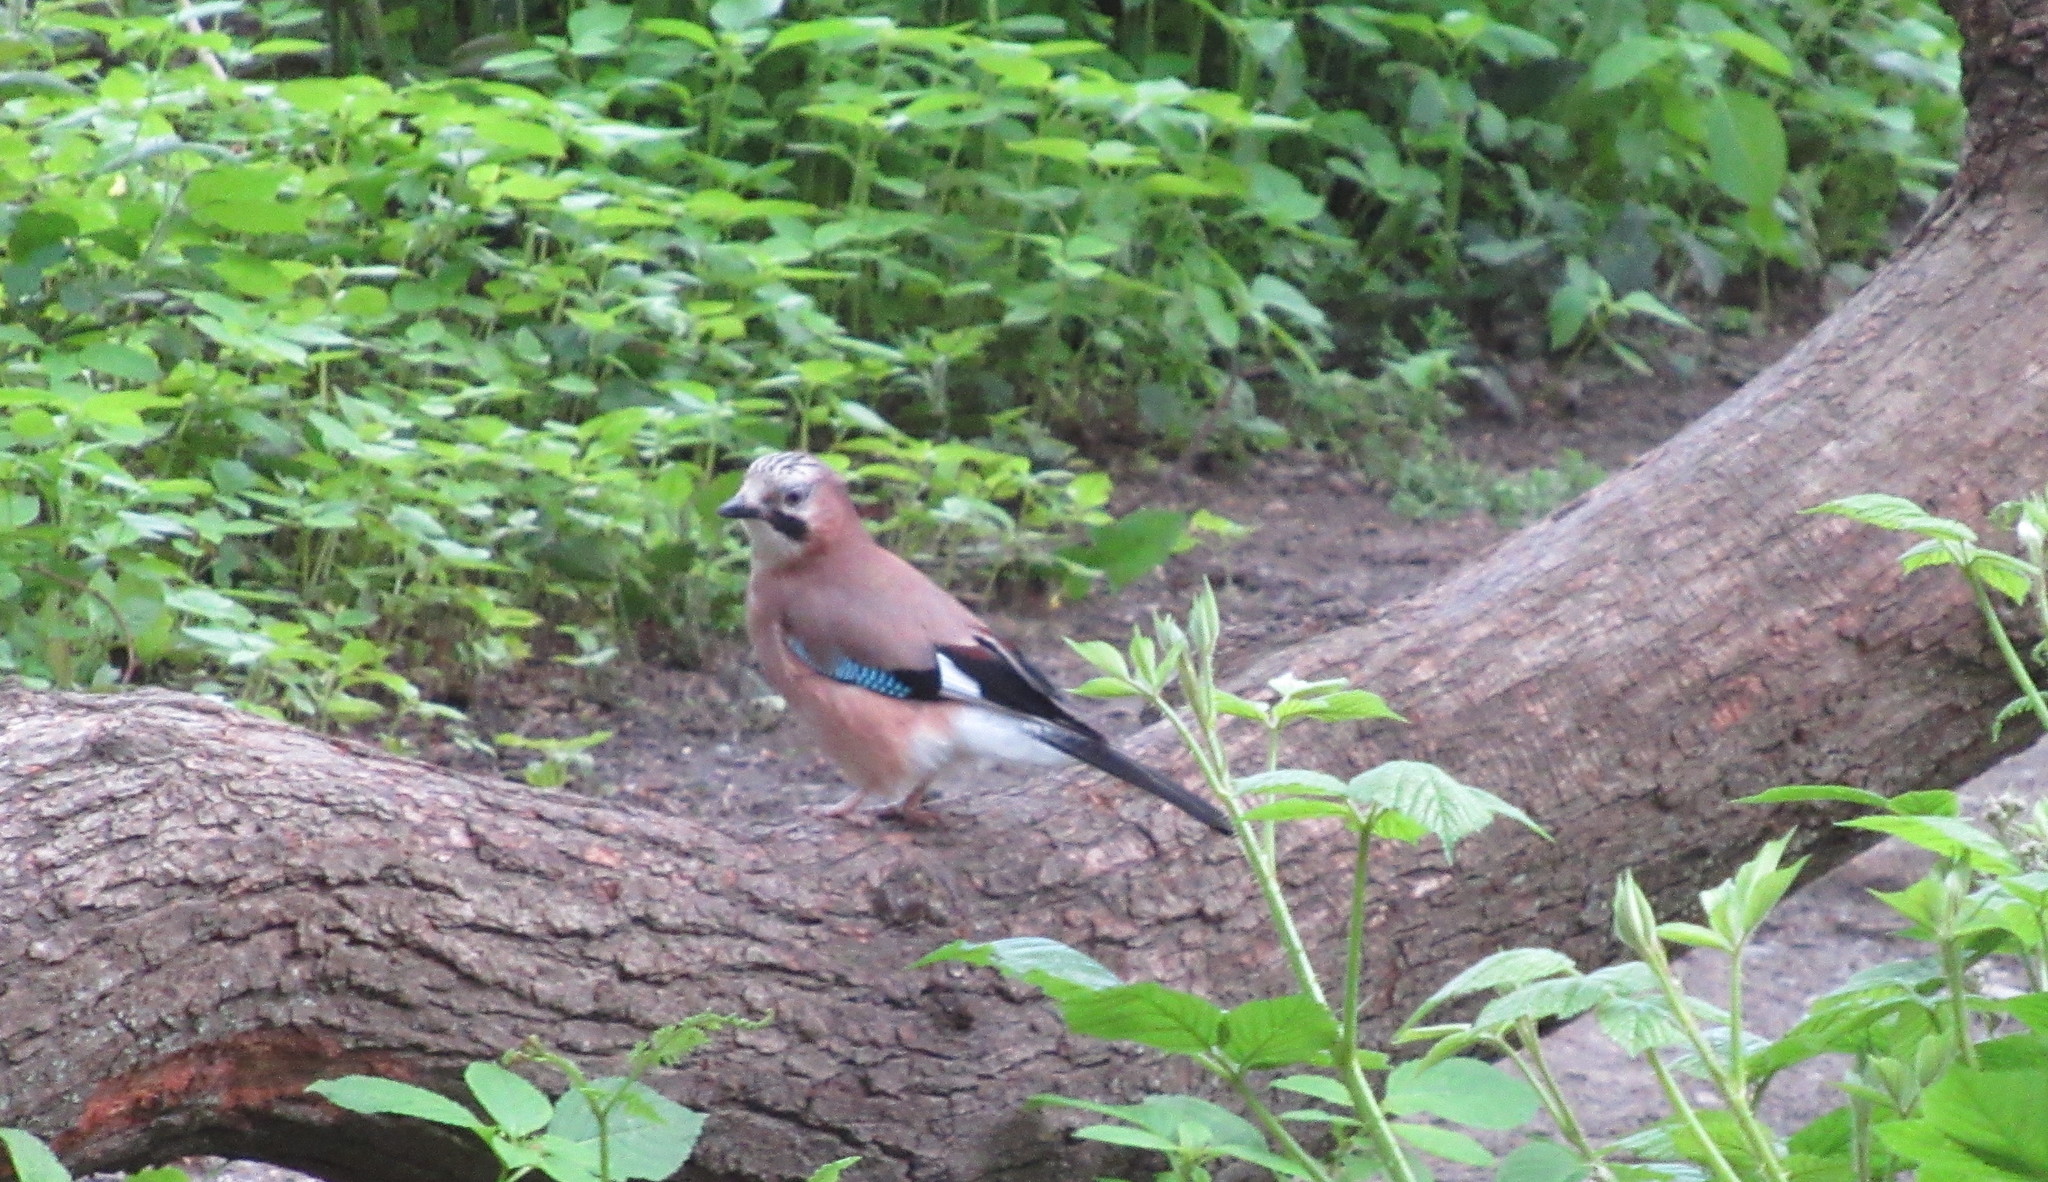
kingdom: Animalia
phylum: Chordata
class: Aves
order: Passeriformes
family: Corvidae
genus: Garrulus
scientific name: Garrulus glandarius
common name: Eurasian jay
